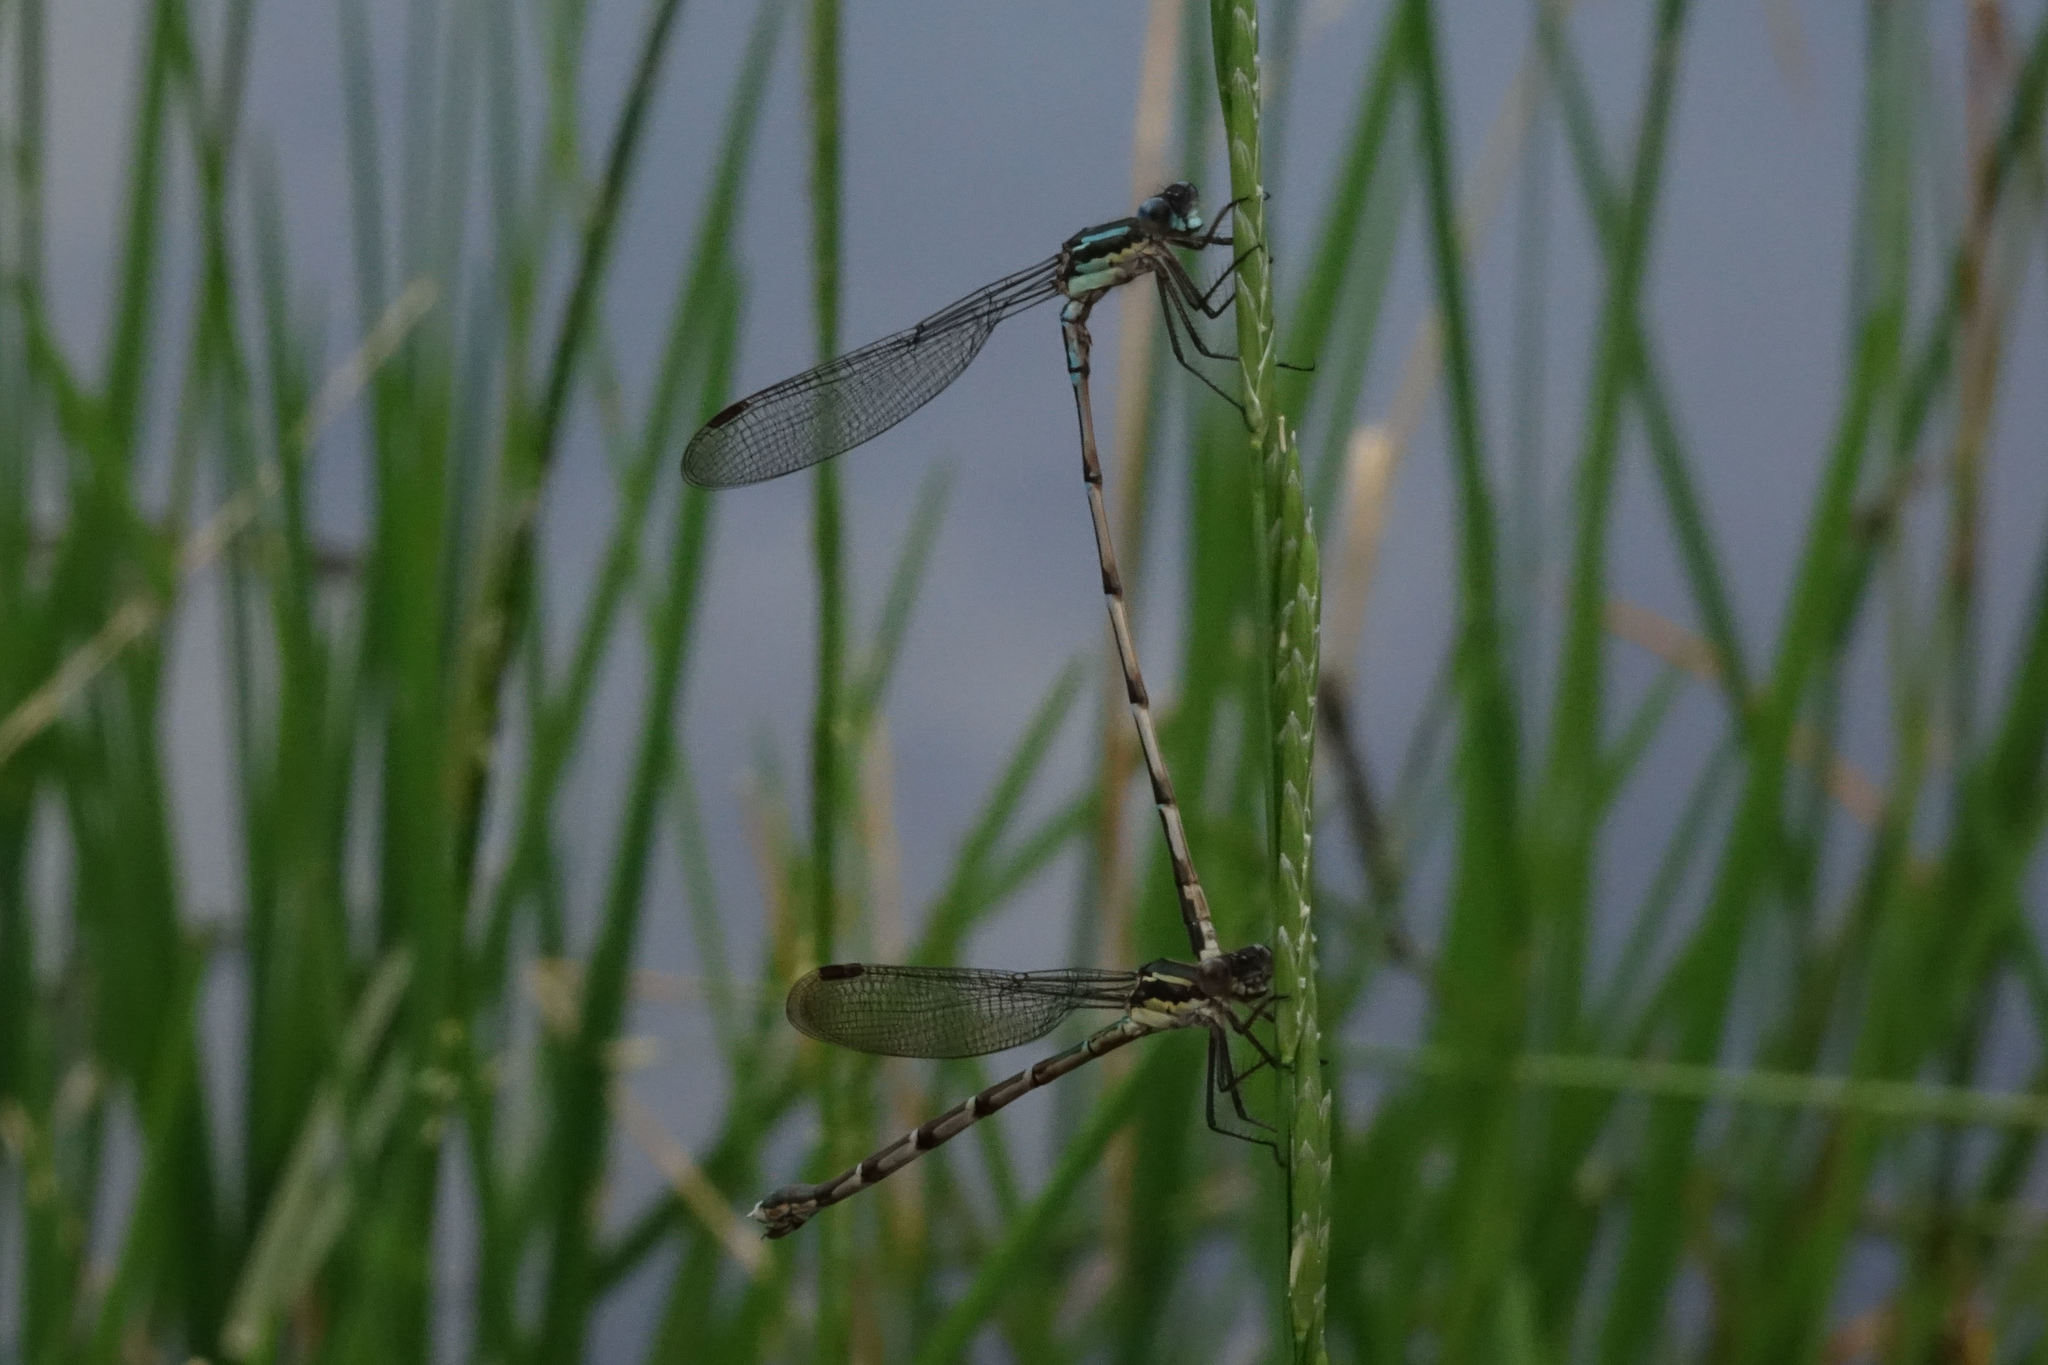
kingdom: Animalia
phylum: Arthropoda
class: Insecta
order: Odonata
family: Lestidae
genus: Austrolestes
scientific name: Austrolestes colensonis
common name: Blue damselfly
